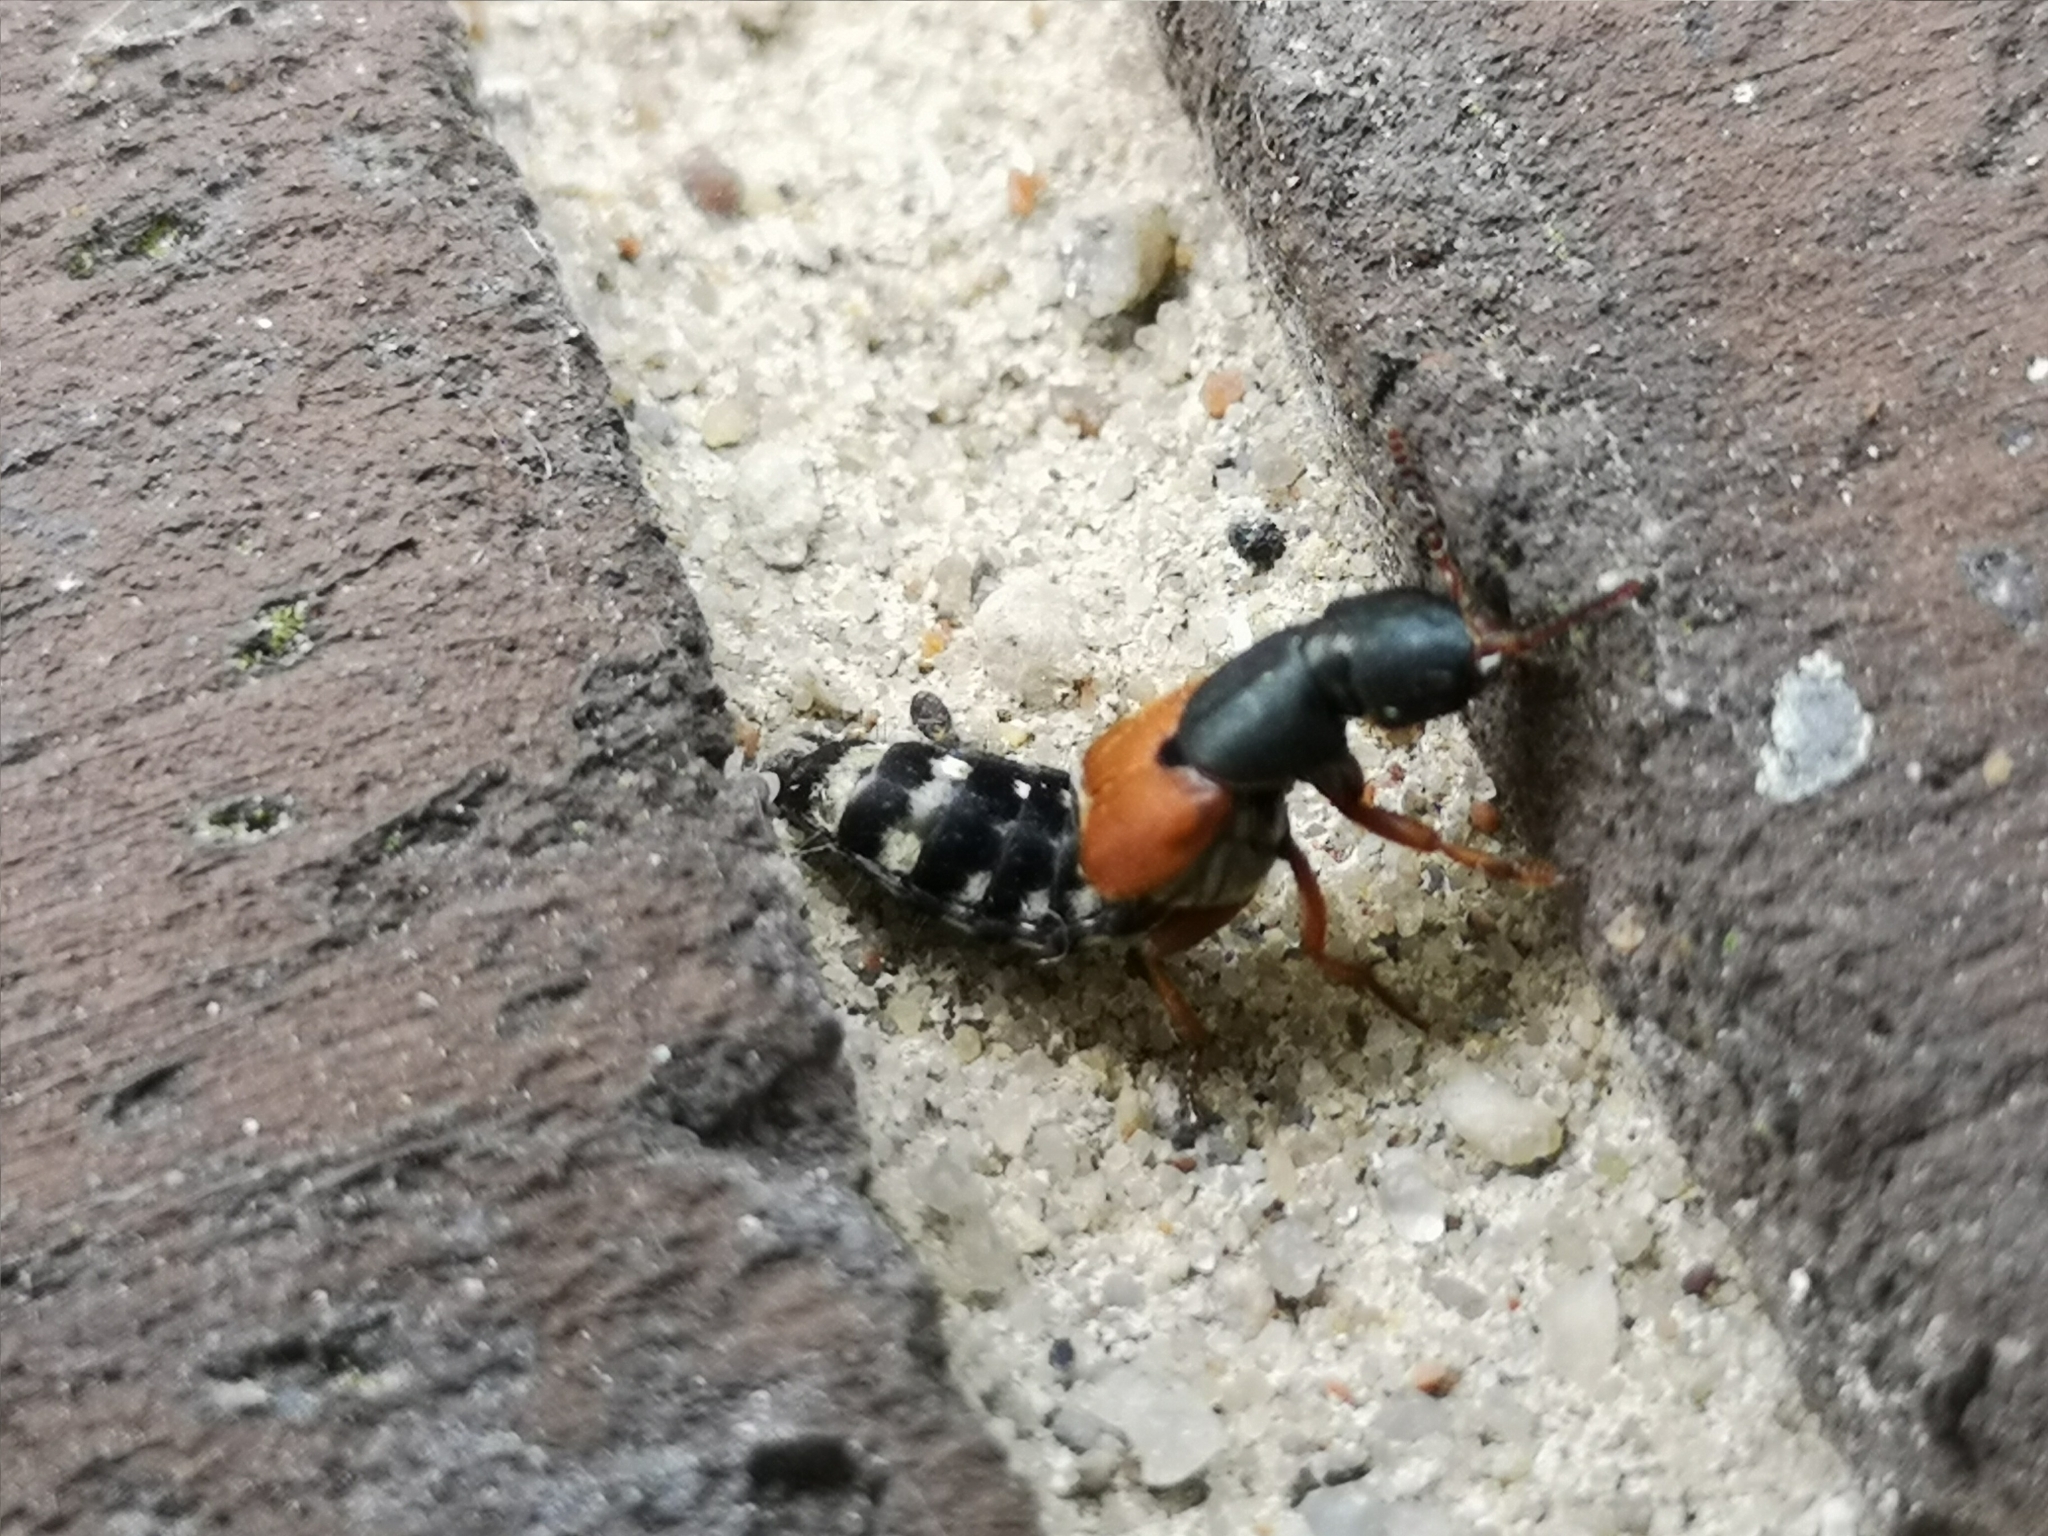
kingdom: Animalia
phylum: Arthropoda
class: Insecta
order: Coleoptera
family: Staphylinidae
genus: Platydracus
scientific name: Platydracus stercorarius
